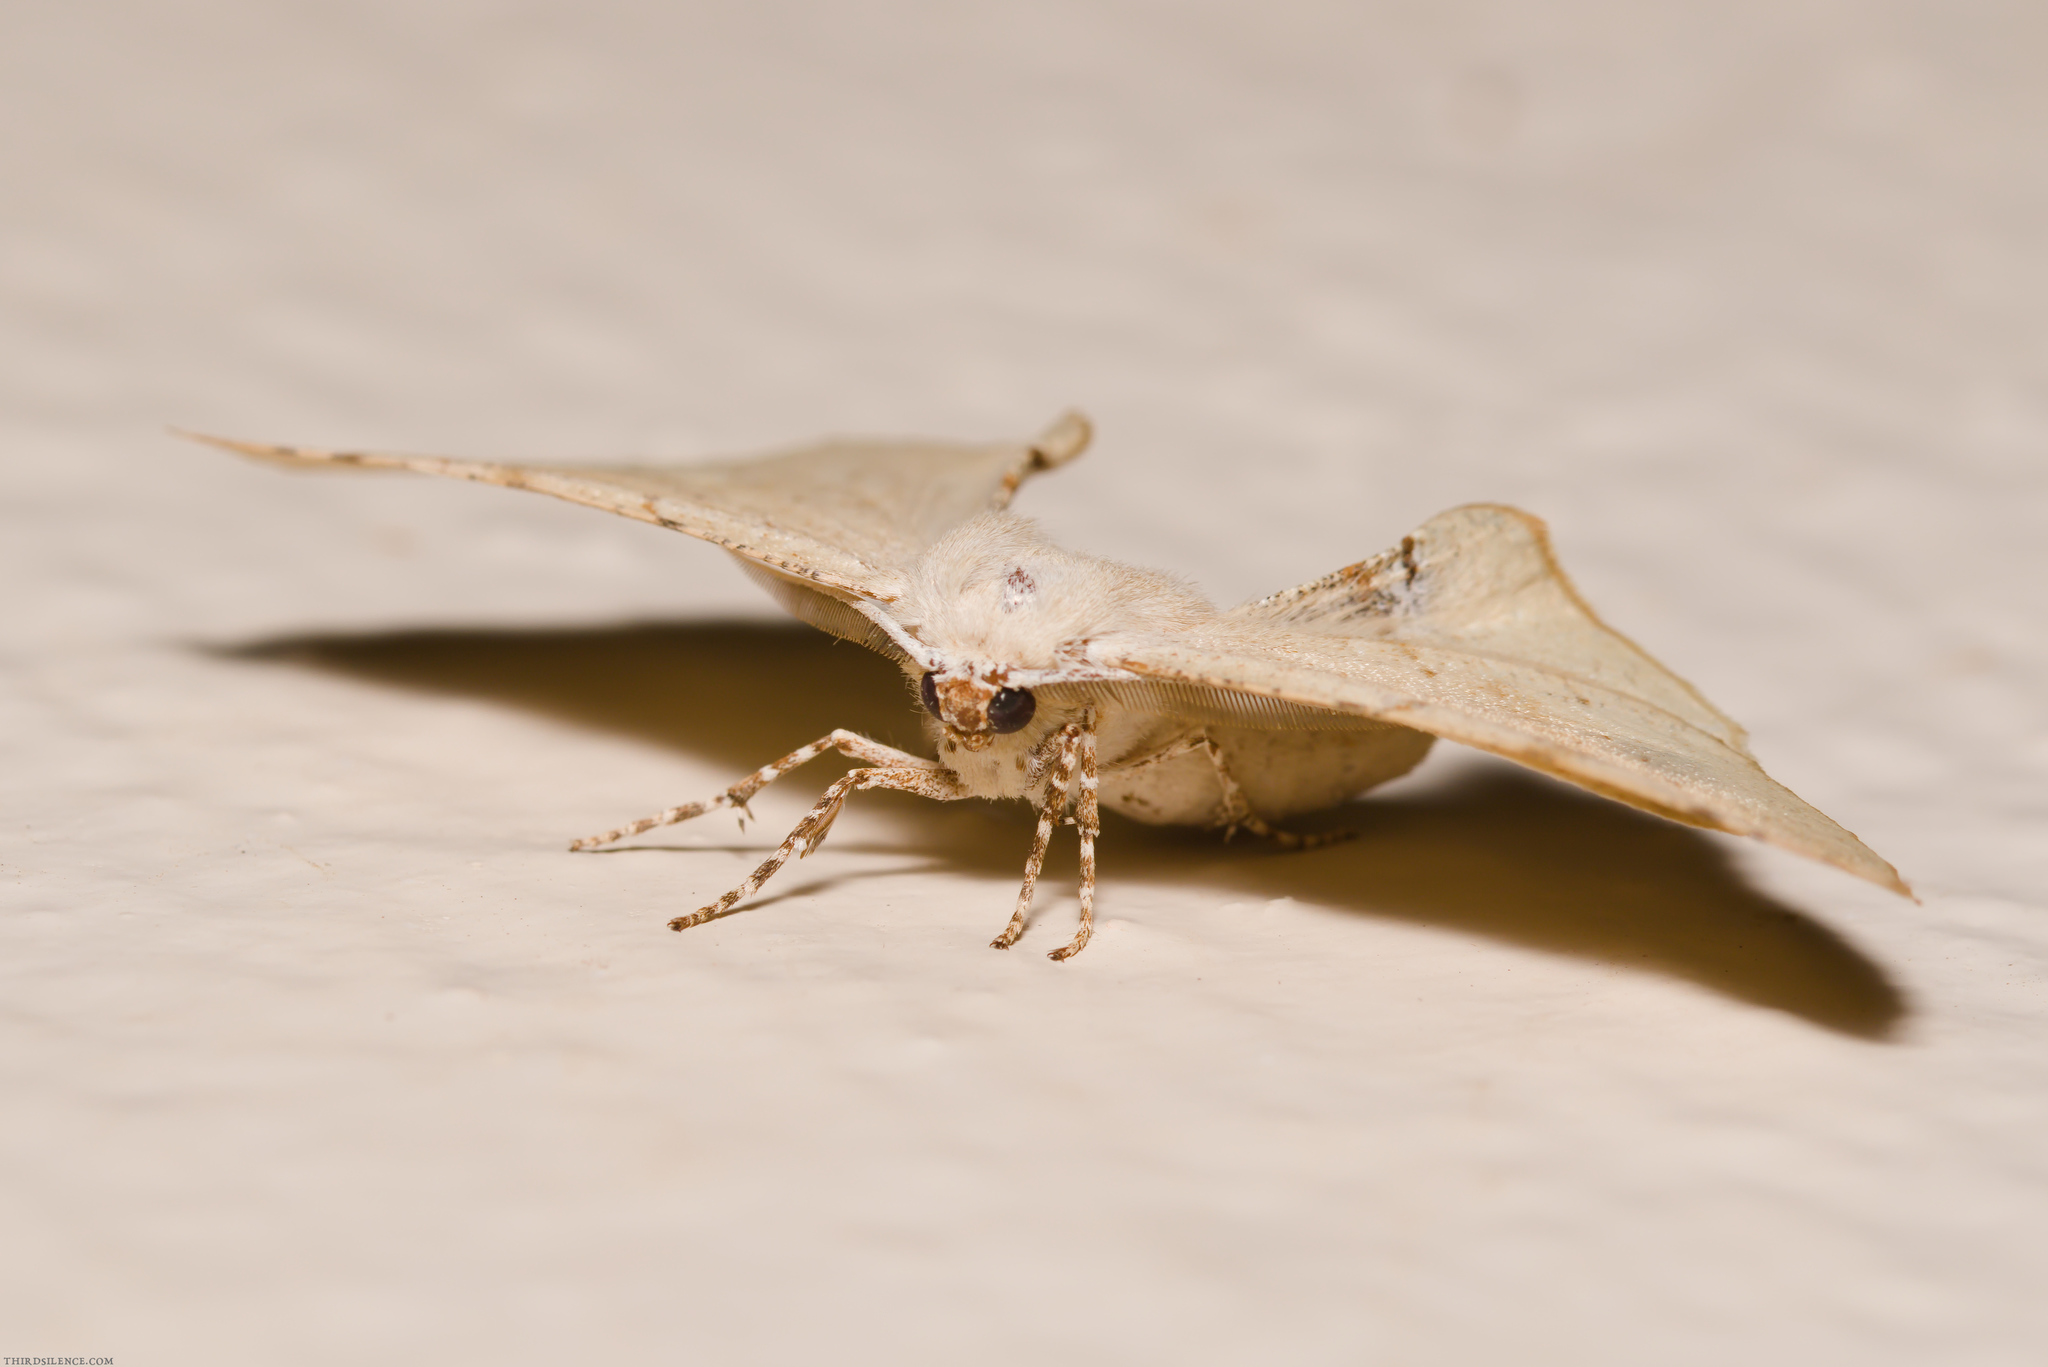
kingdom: Animalia
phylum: Arthropoda
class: Insecta
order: Lepidoptera
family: Geometridae
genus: Circopetes
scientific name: Circopetes obtusata
